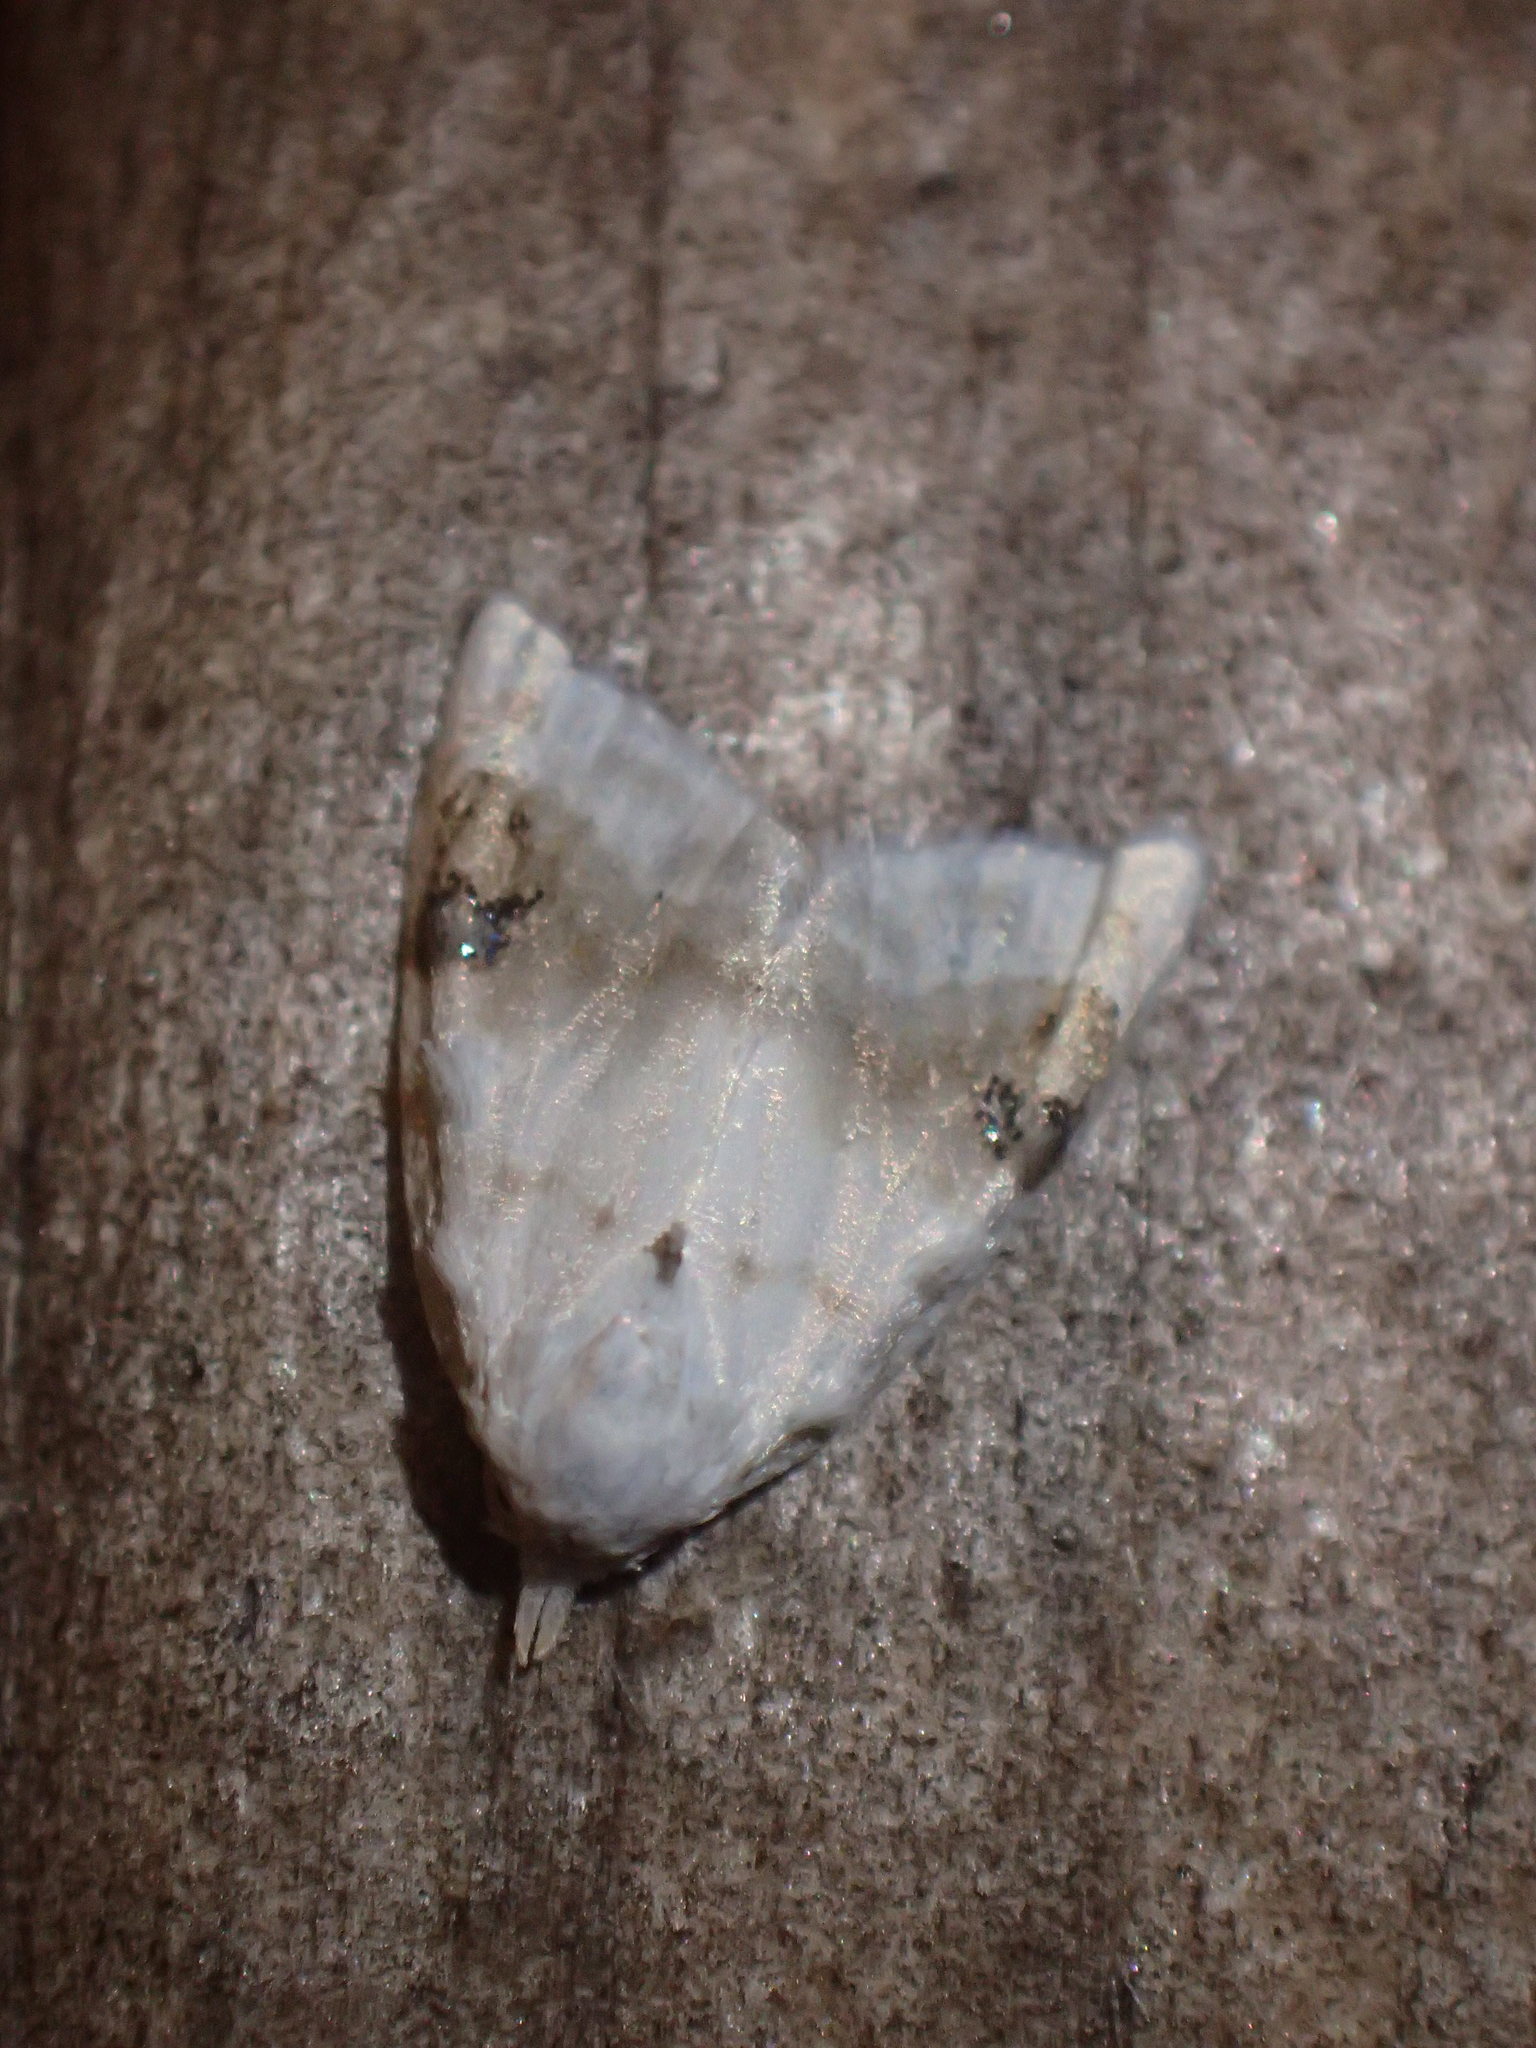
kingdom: Animalia
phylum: Arthropoda
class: Insecta
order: Lepidoptera
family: Nolidae
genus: Nola
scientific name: Nola cilicoides
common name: Blurry-patched nola moth
